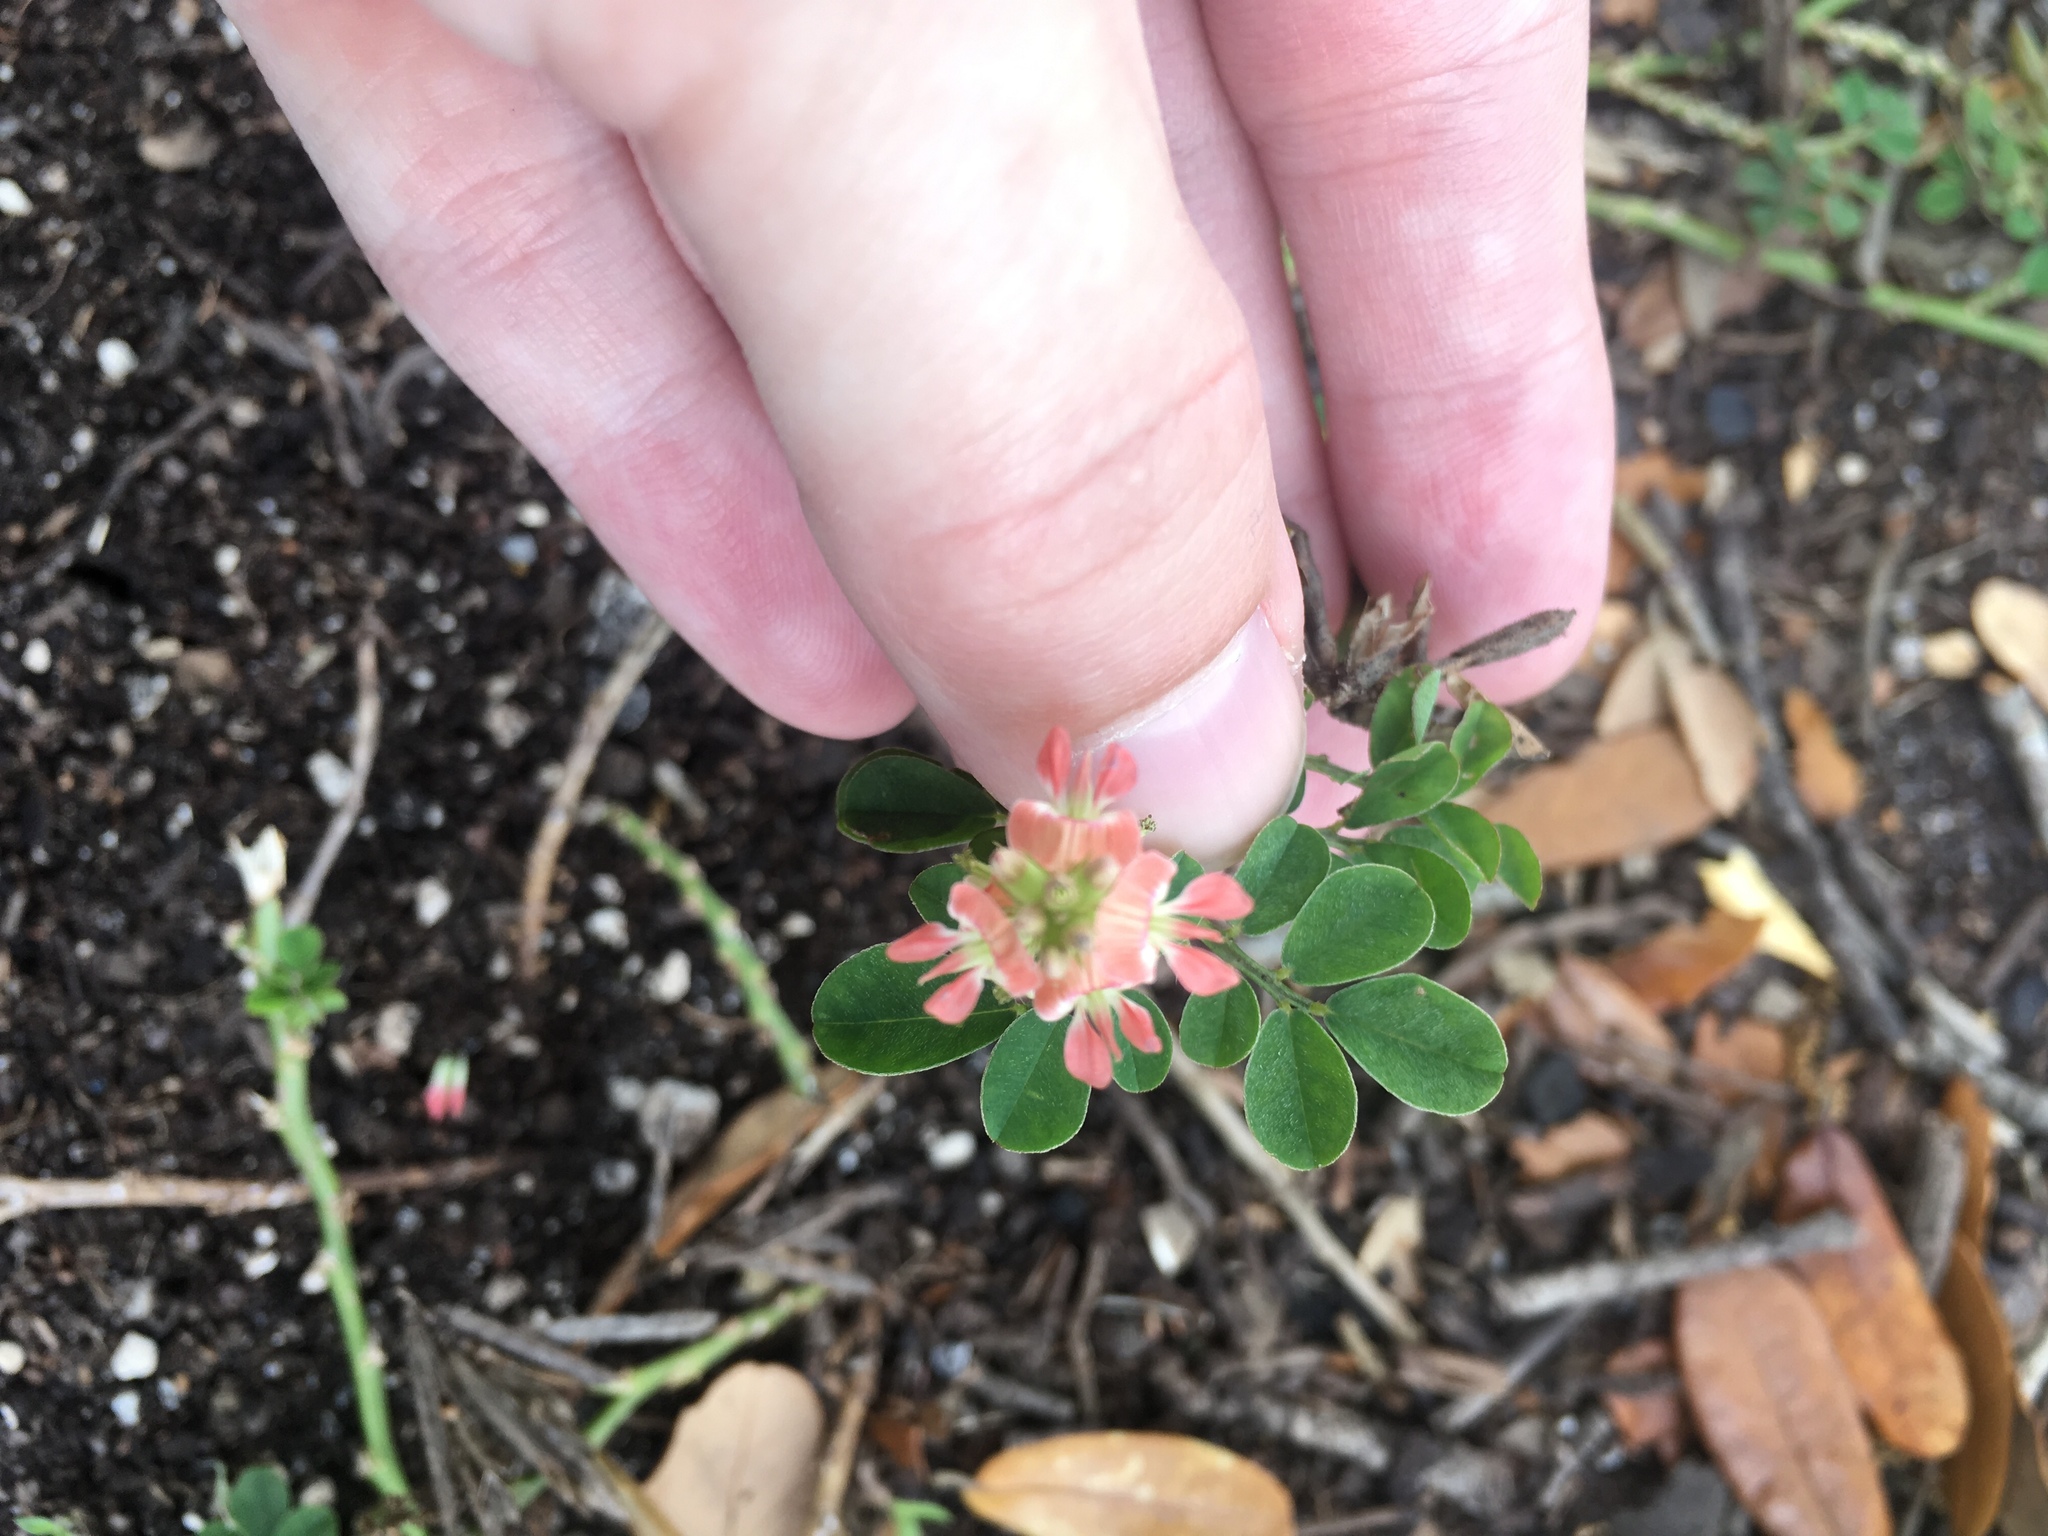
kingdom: Plantae
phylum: Tracheophyta
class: Magnoliopsida
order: Fabales
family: Fabaceae
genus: Indigofera
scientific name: Indigofera spicata
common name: Creeping indigo
